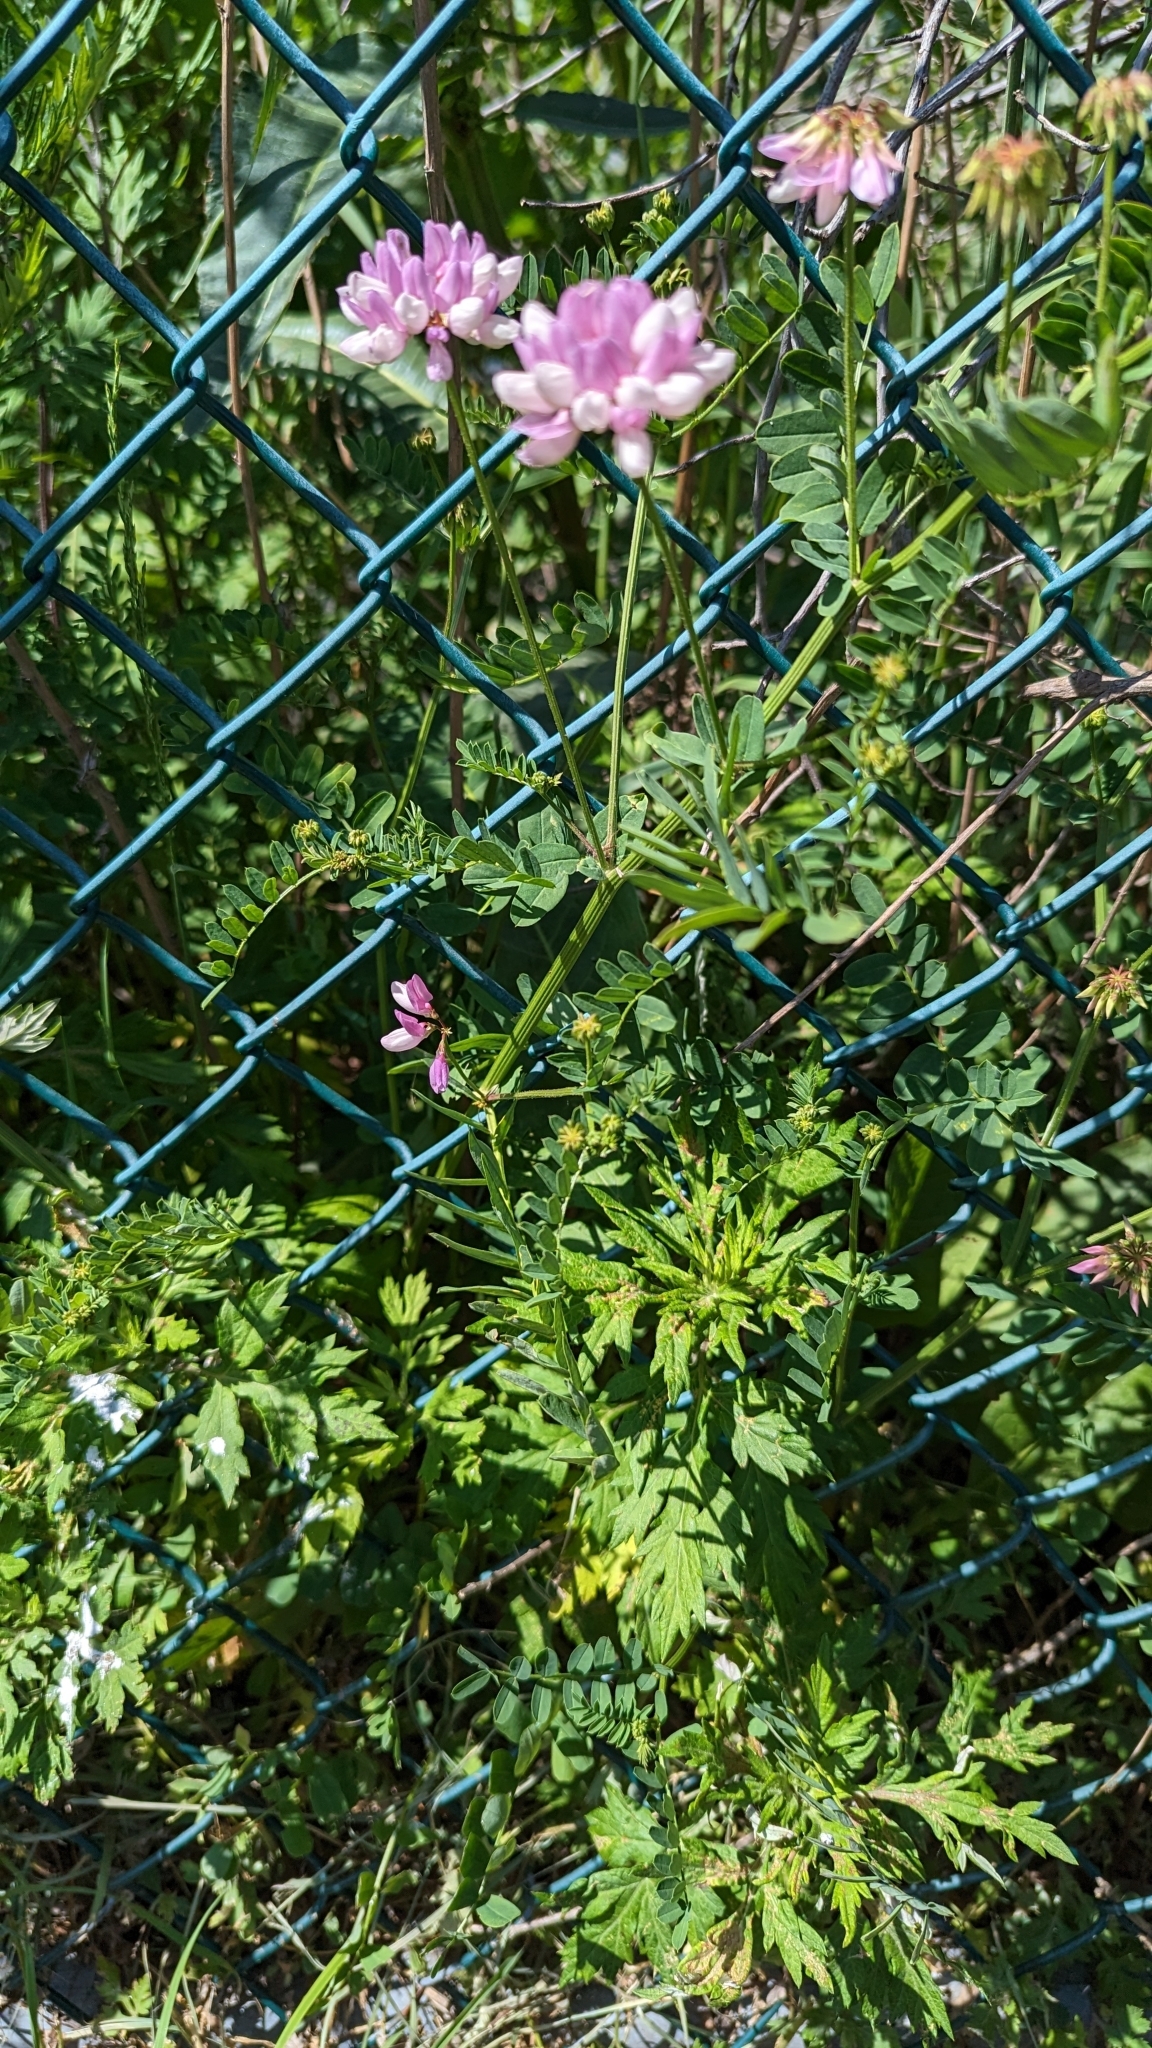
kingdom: Plantae
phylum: Tracheophyta
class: Magnoliopsida
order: Fabales
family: Fabaceae
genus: Coronilla
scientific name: Coronilla varia
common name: Crownvetch
